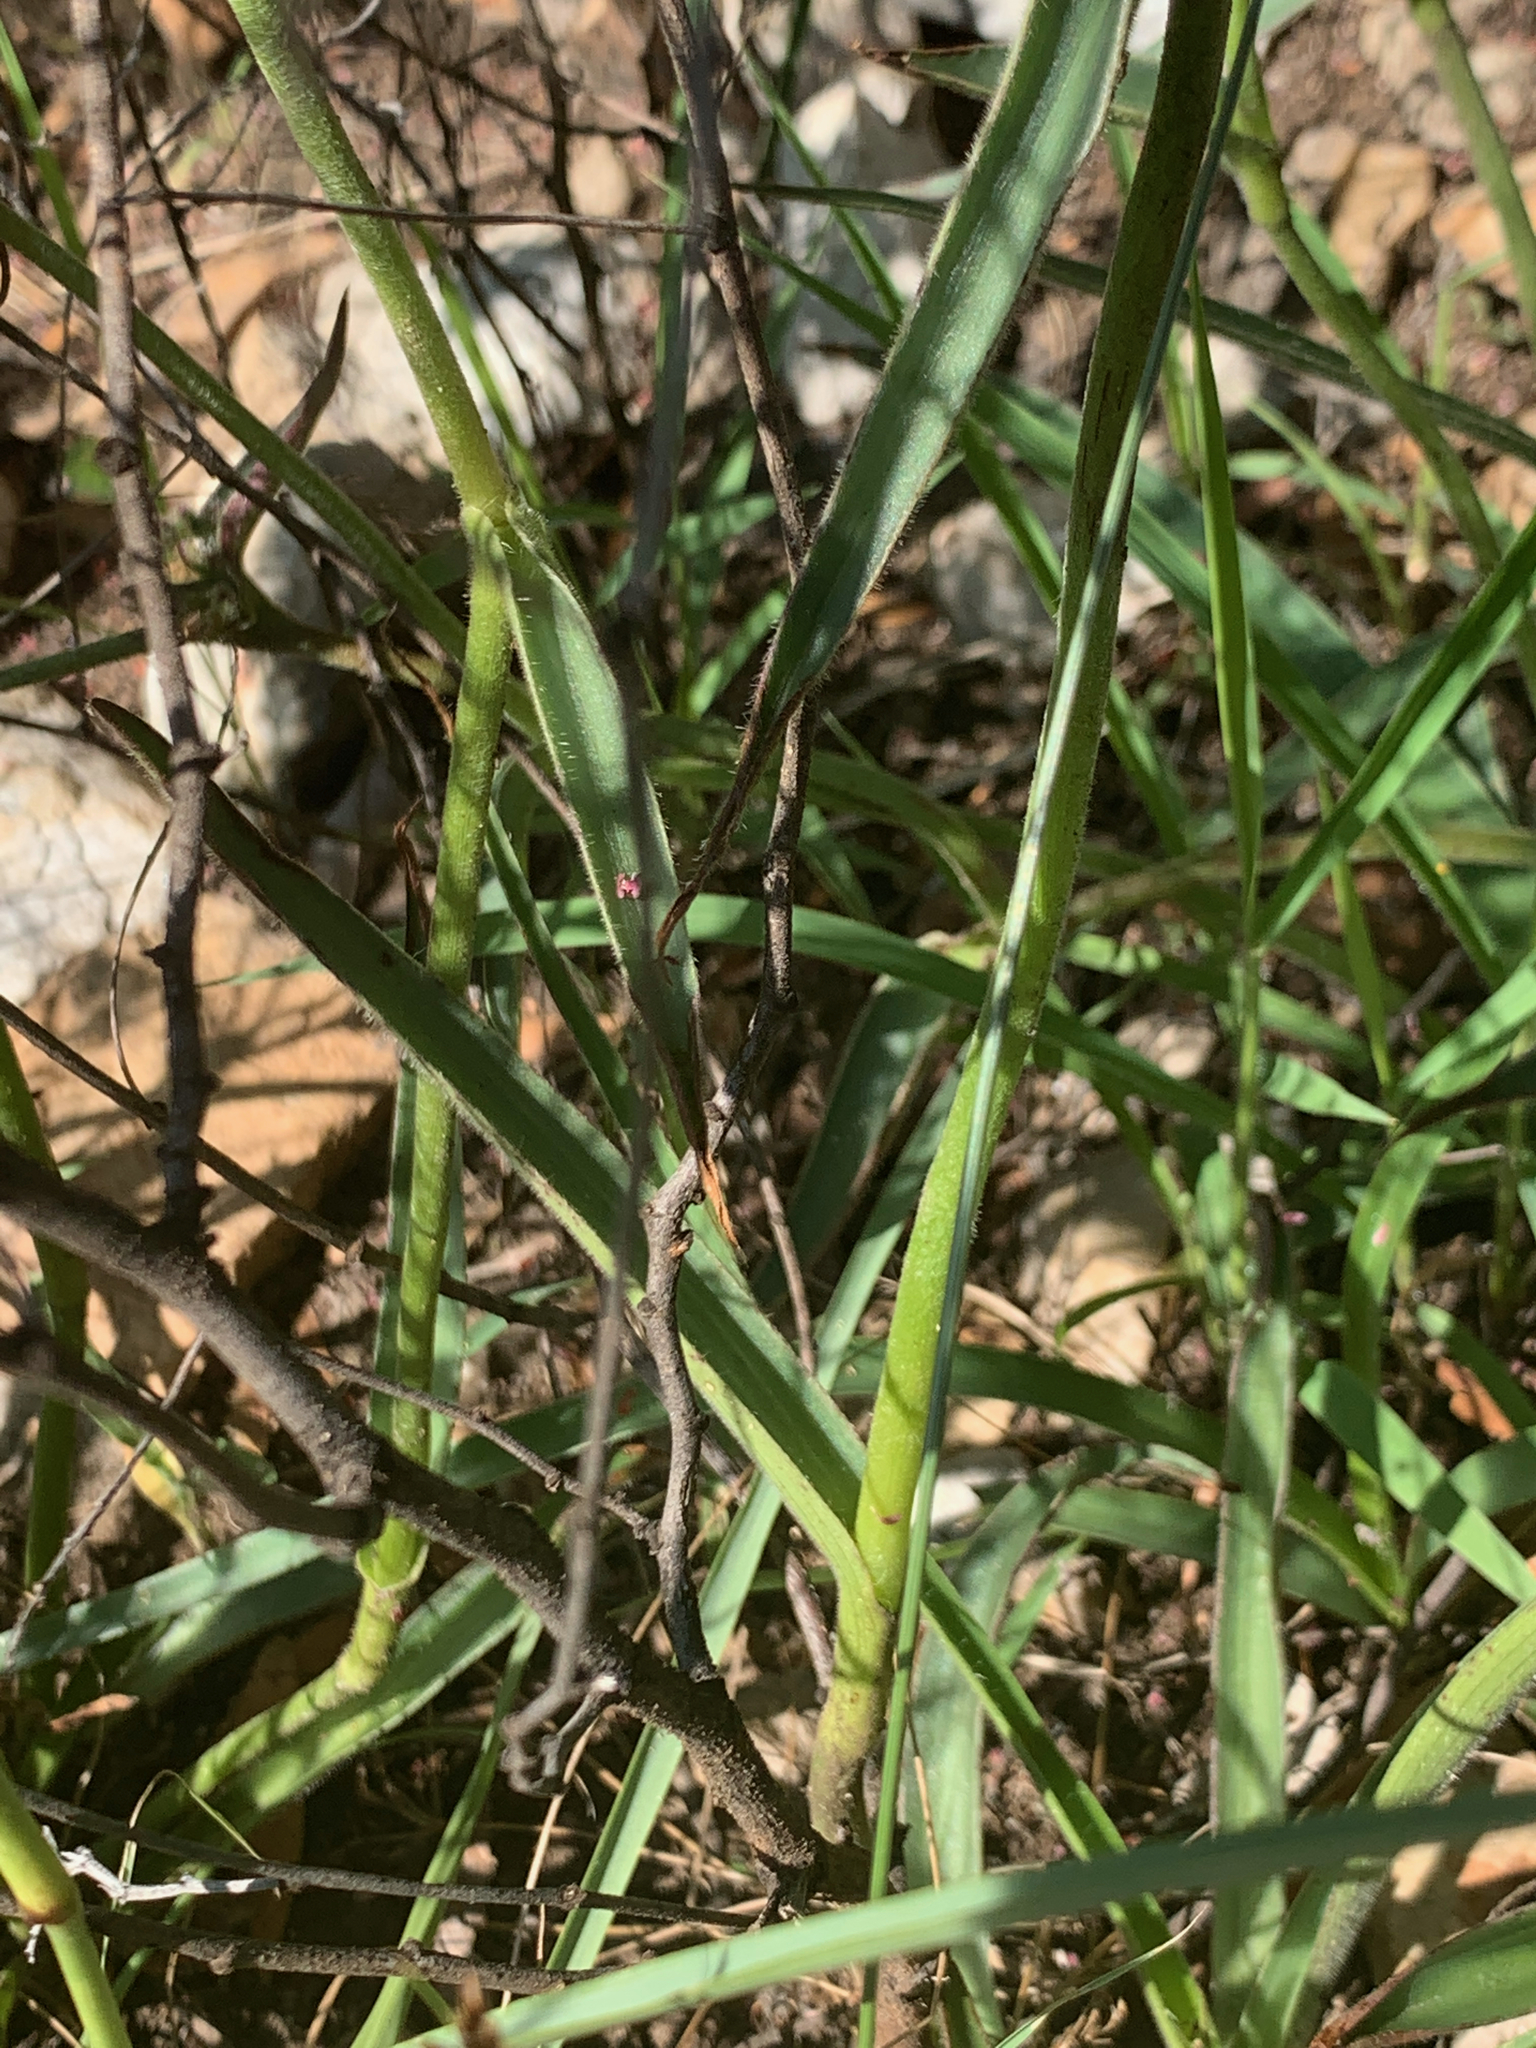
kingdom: Plantae
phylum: Tracheophyta
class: Liliopsida
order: Commelinales
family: Commelinaceae
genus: Cyanotis
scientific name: Cyanotis speciosa
